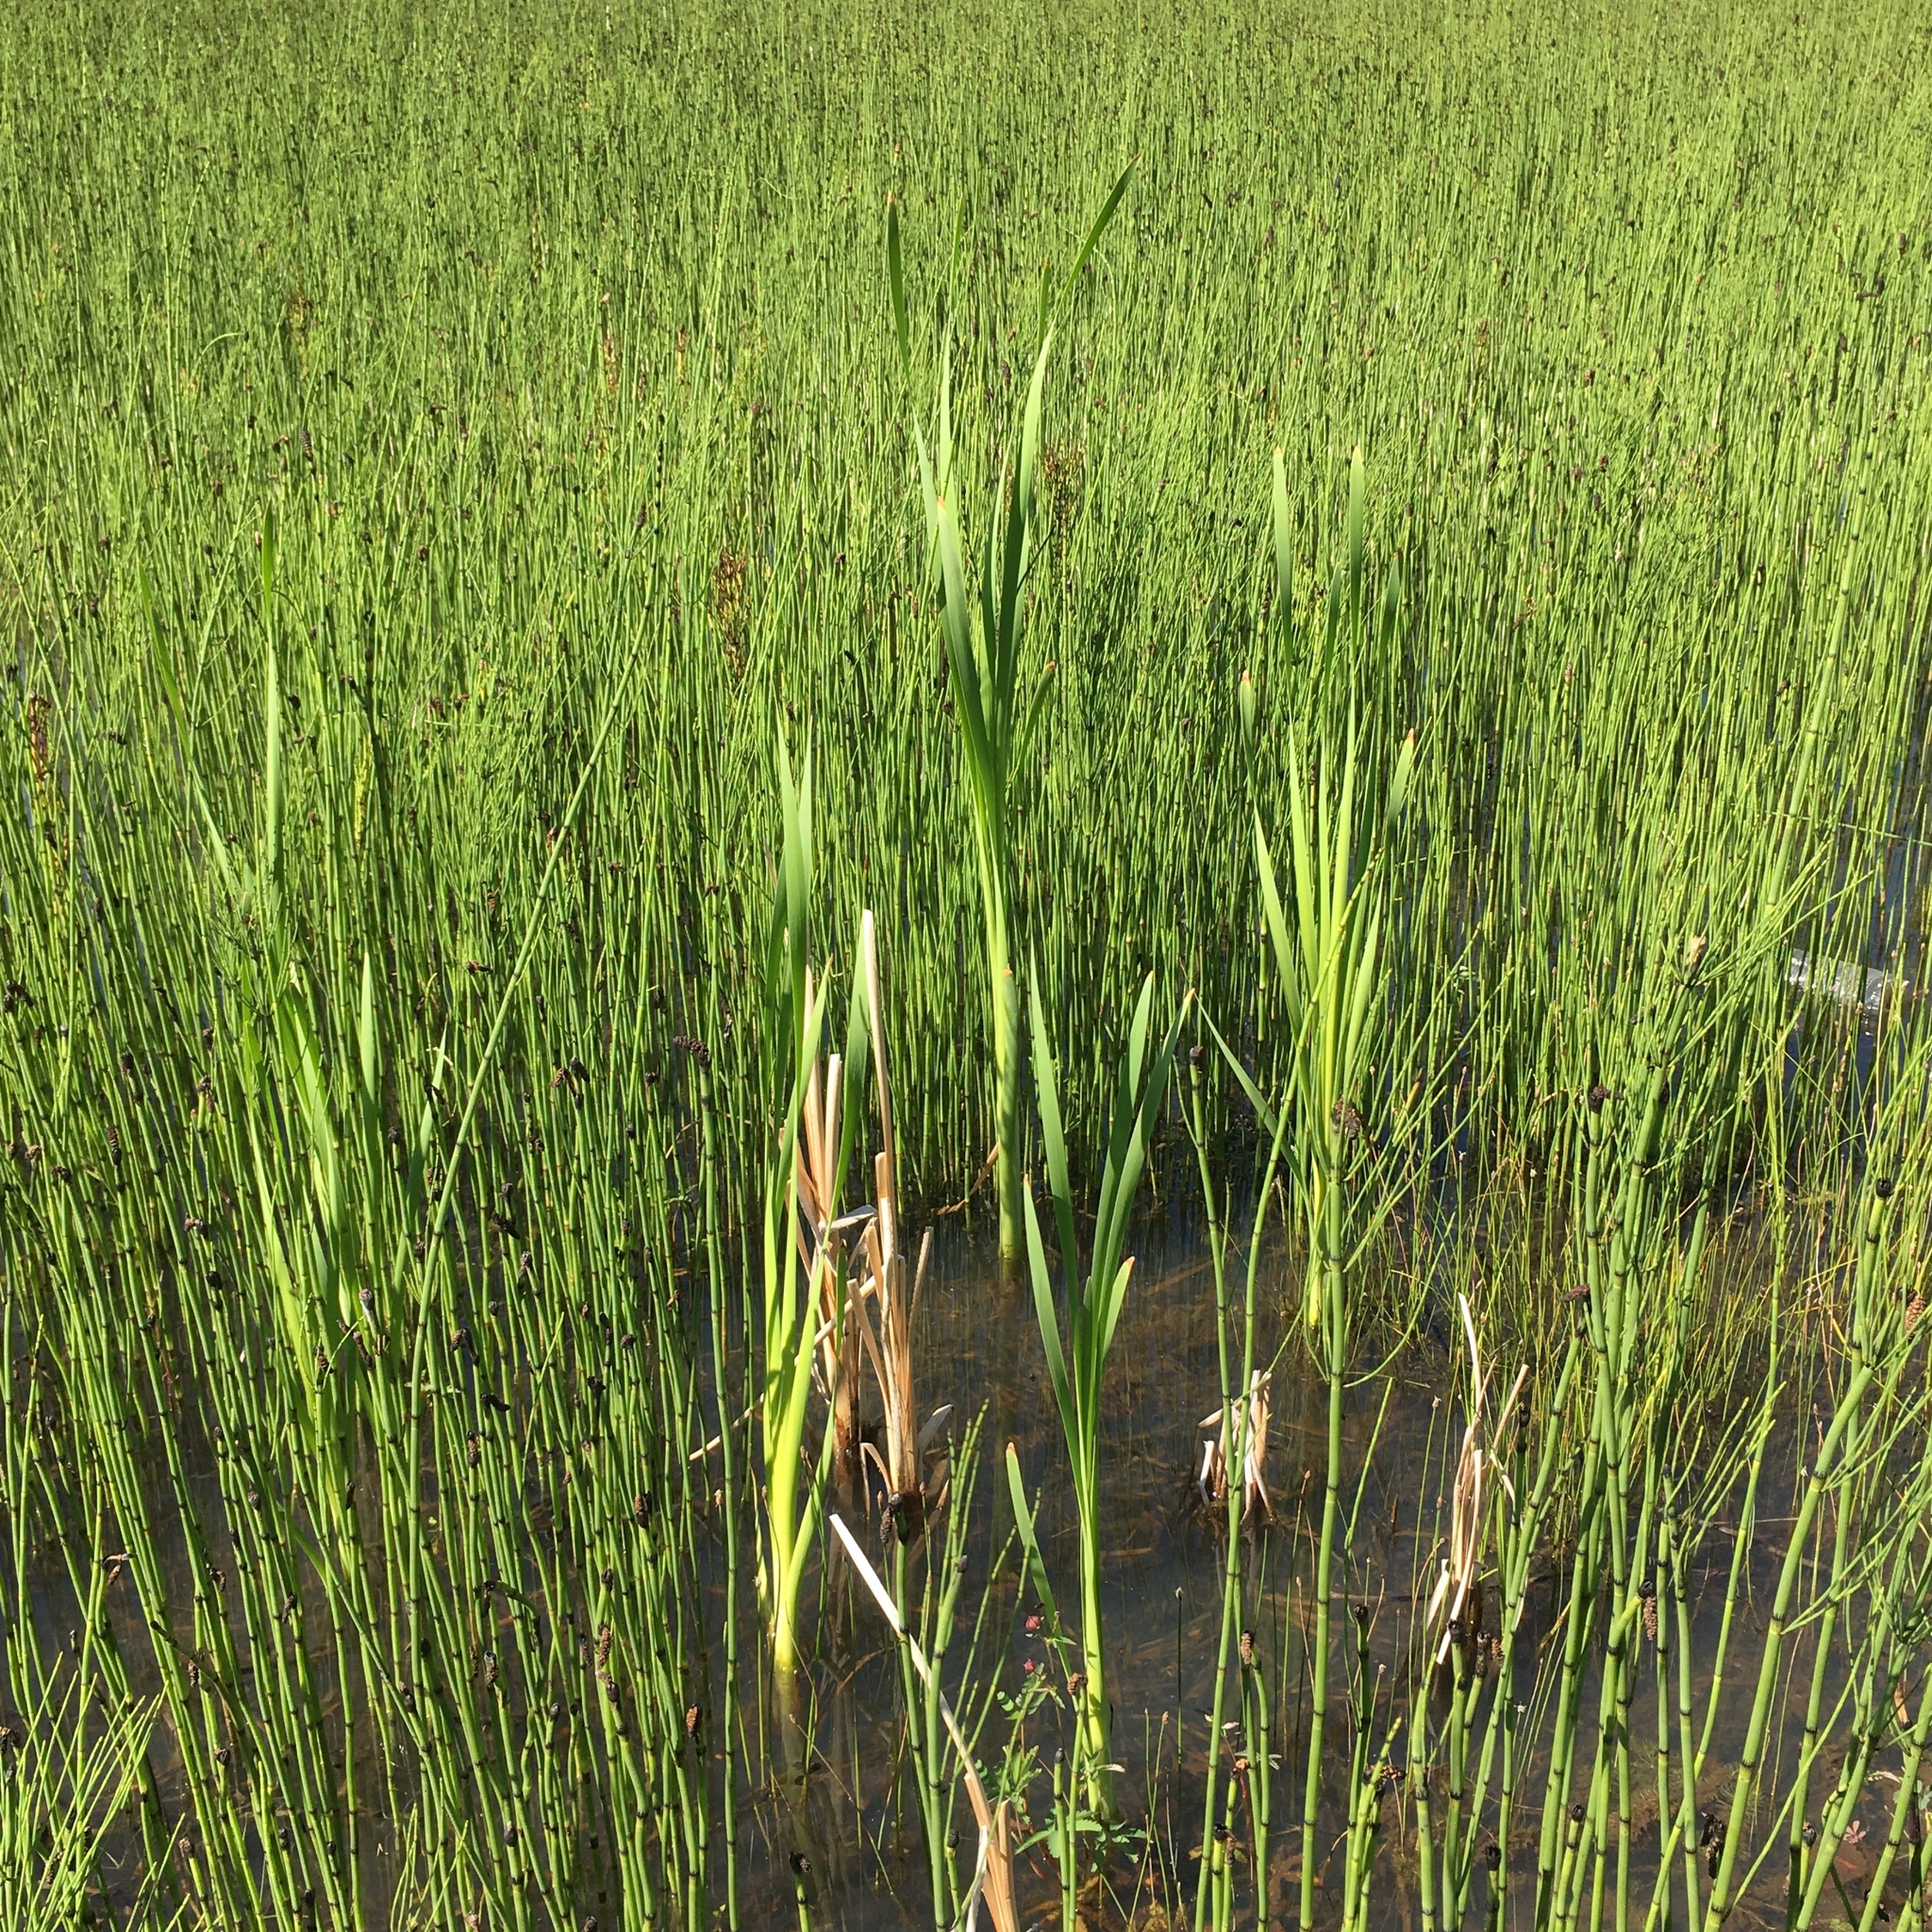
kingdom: Plantae
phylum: Tracheophyta
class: Liliopsida
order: Poales
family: Typhaceae
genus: Typha
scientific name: Typha latifolia
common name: Broadleaf cattail
